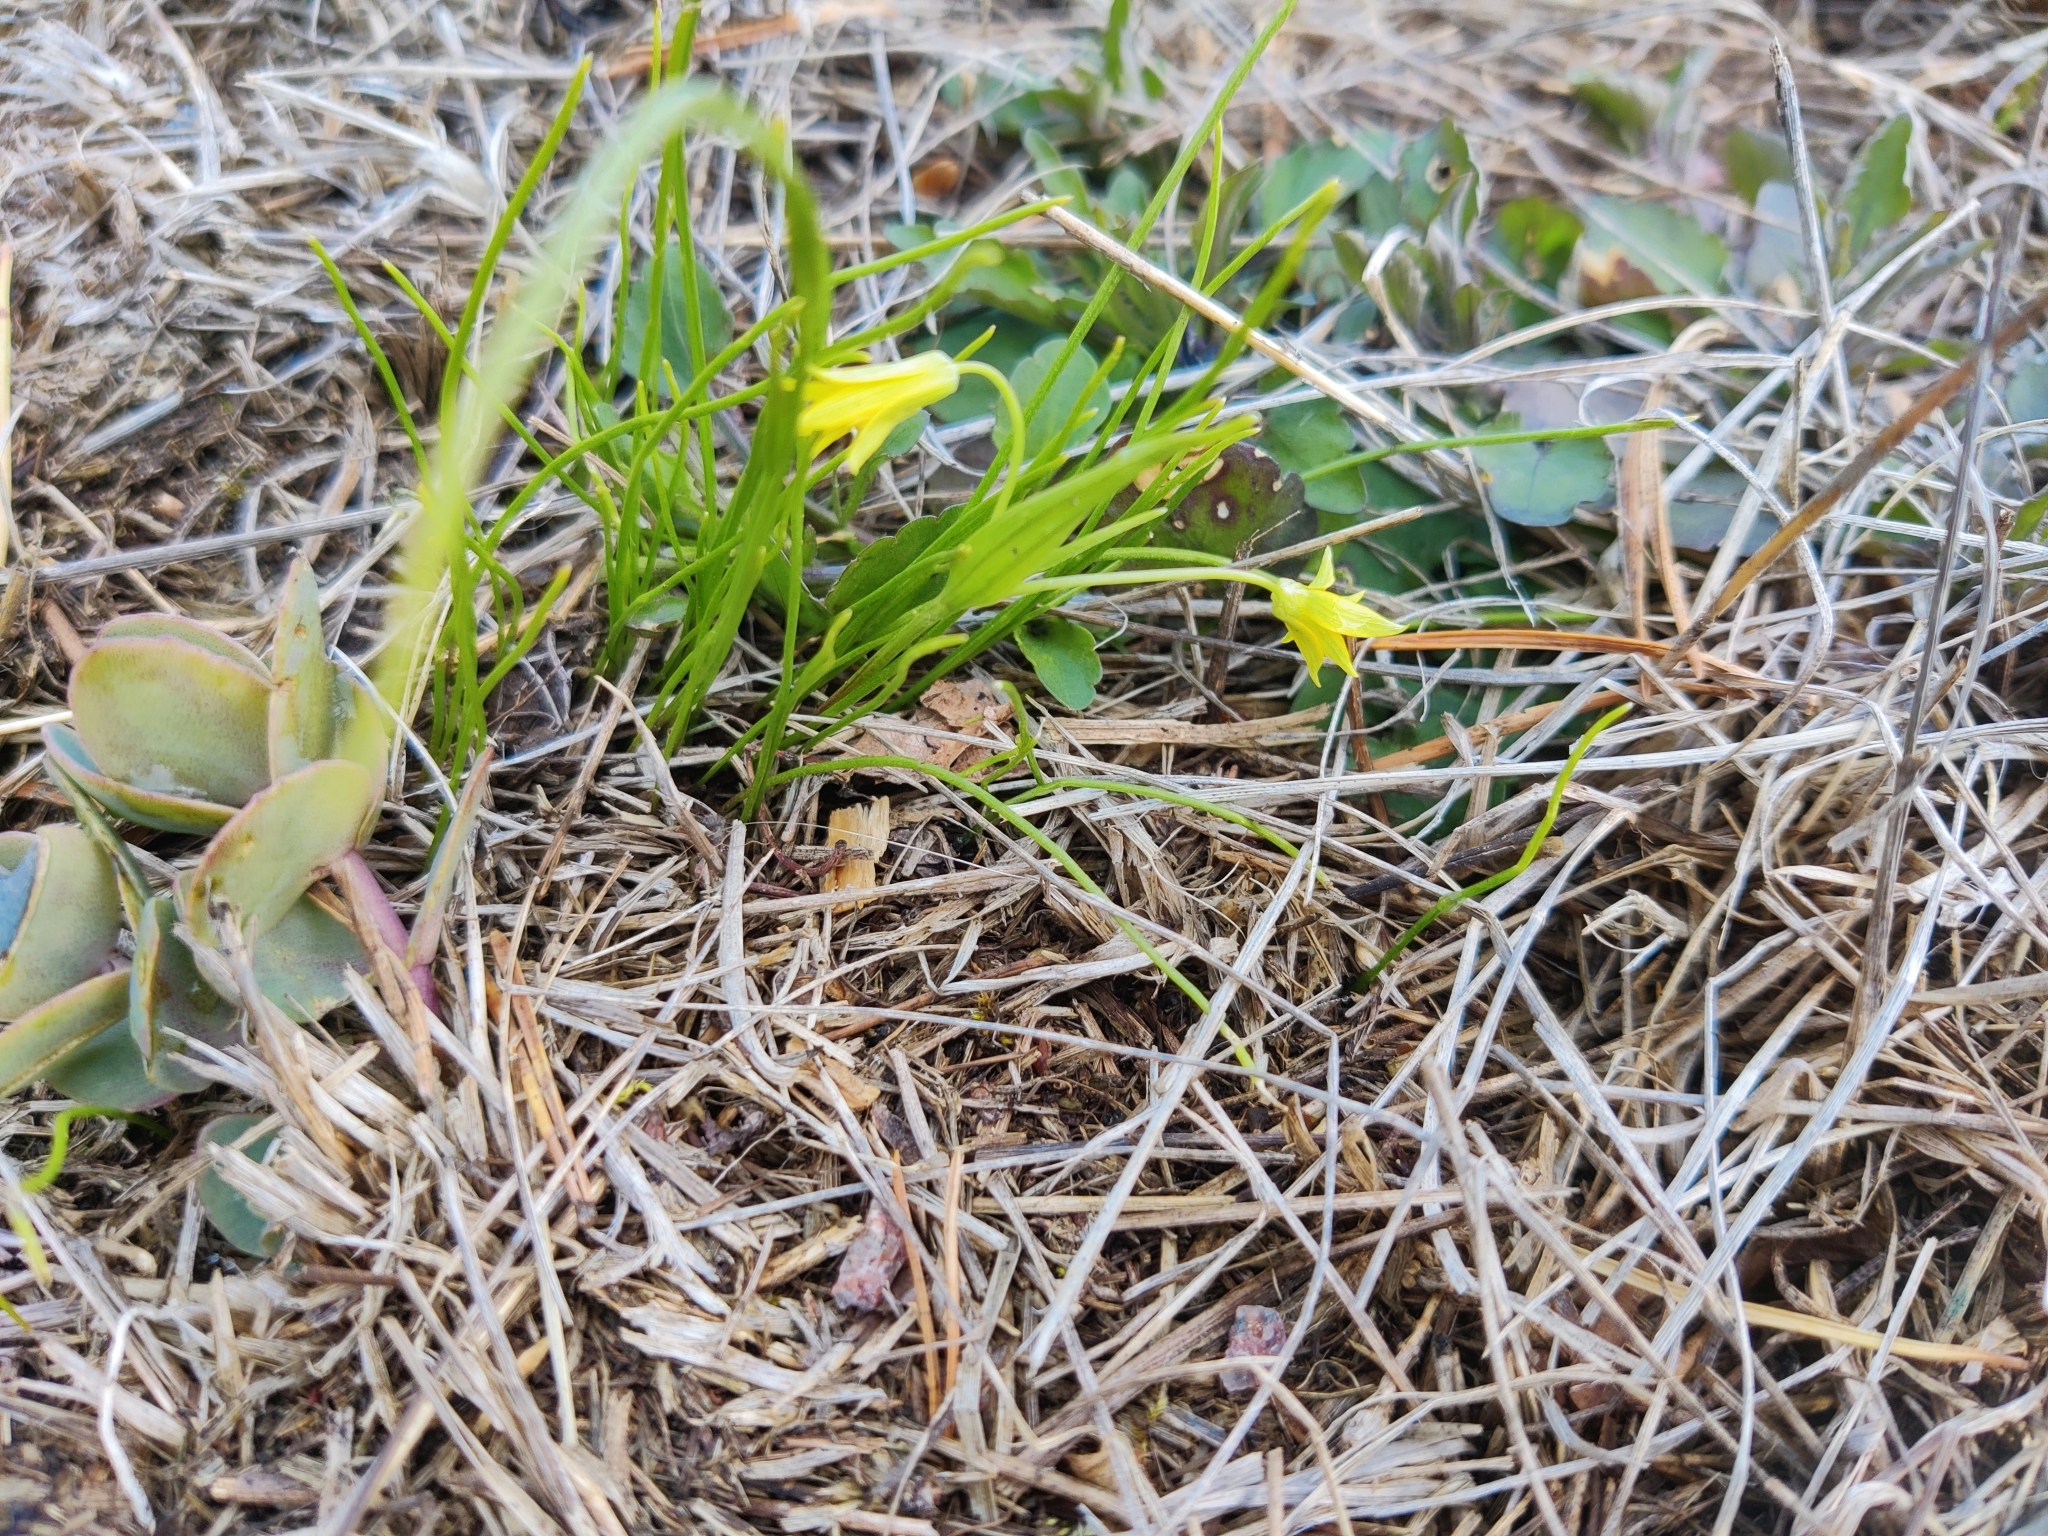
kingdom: Plantae
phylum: Tracheophyta
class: Liliopsida
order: Liliales
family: Liliaceae
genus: Gagea
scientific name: Gagea minima
